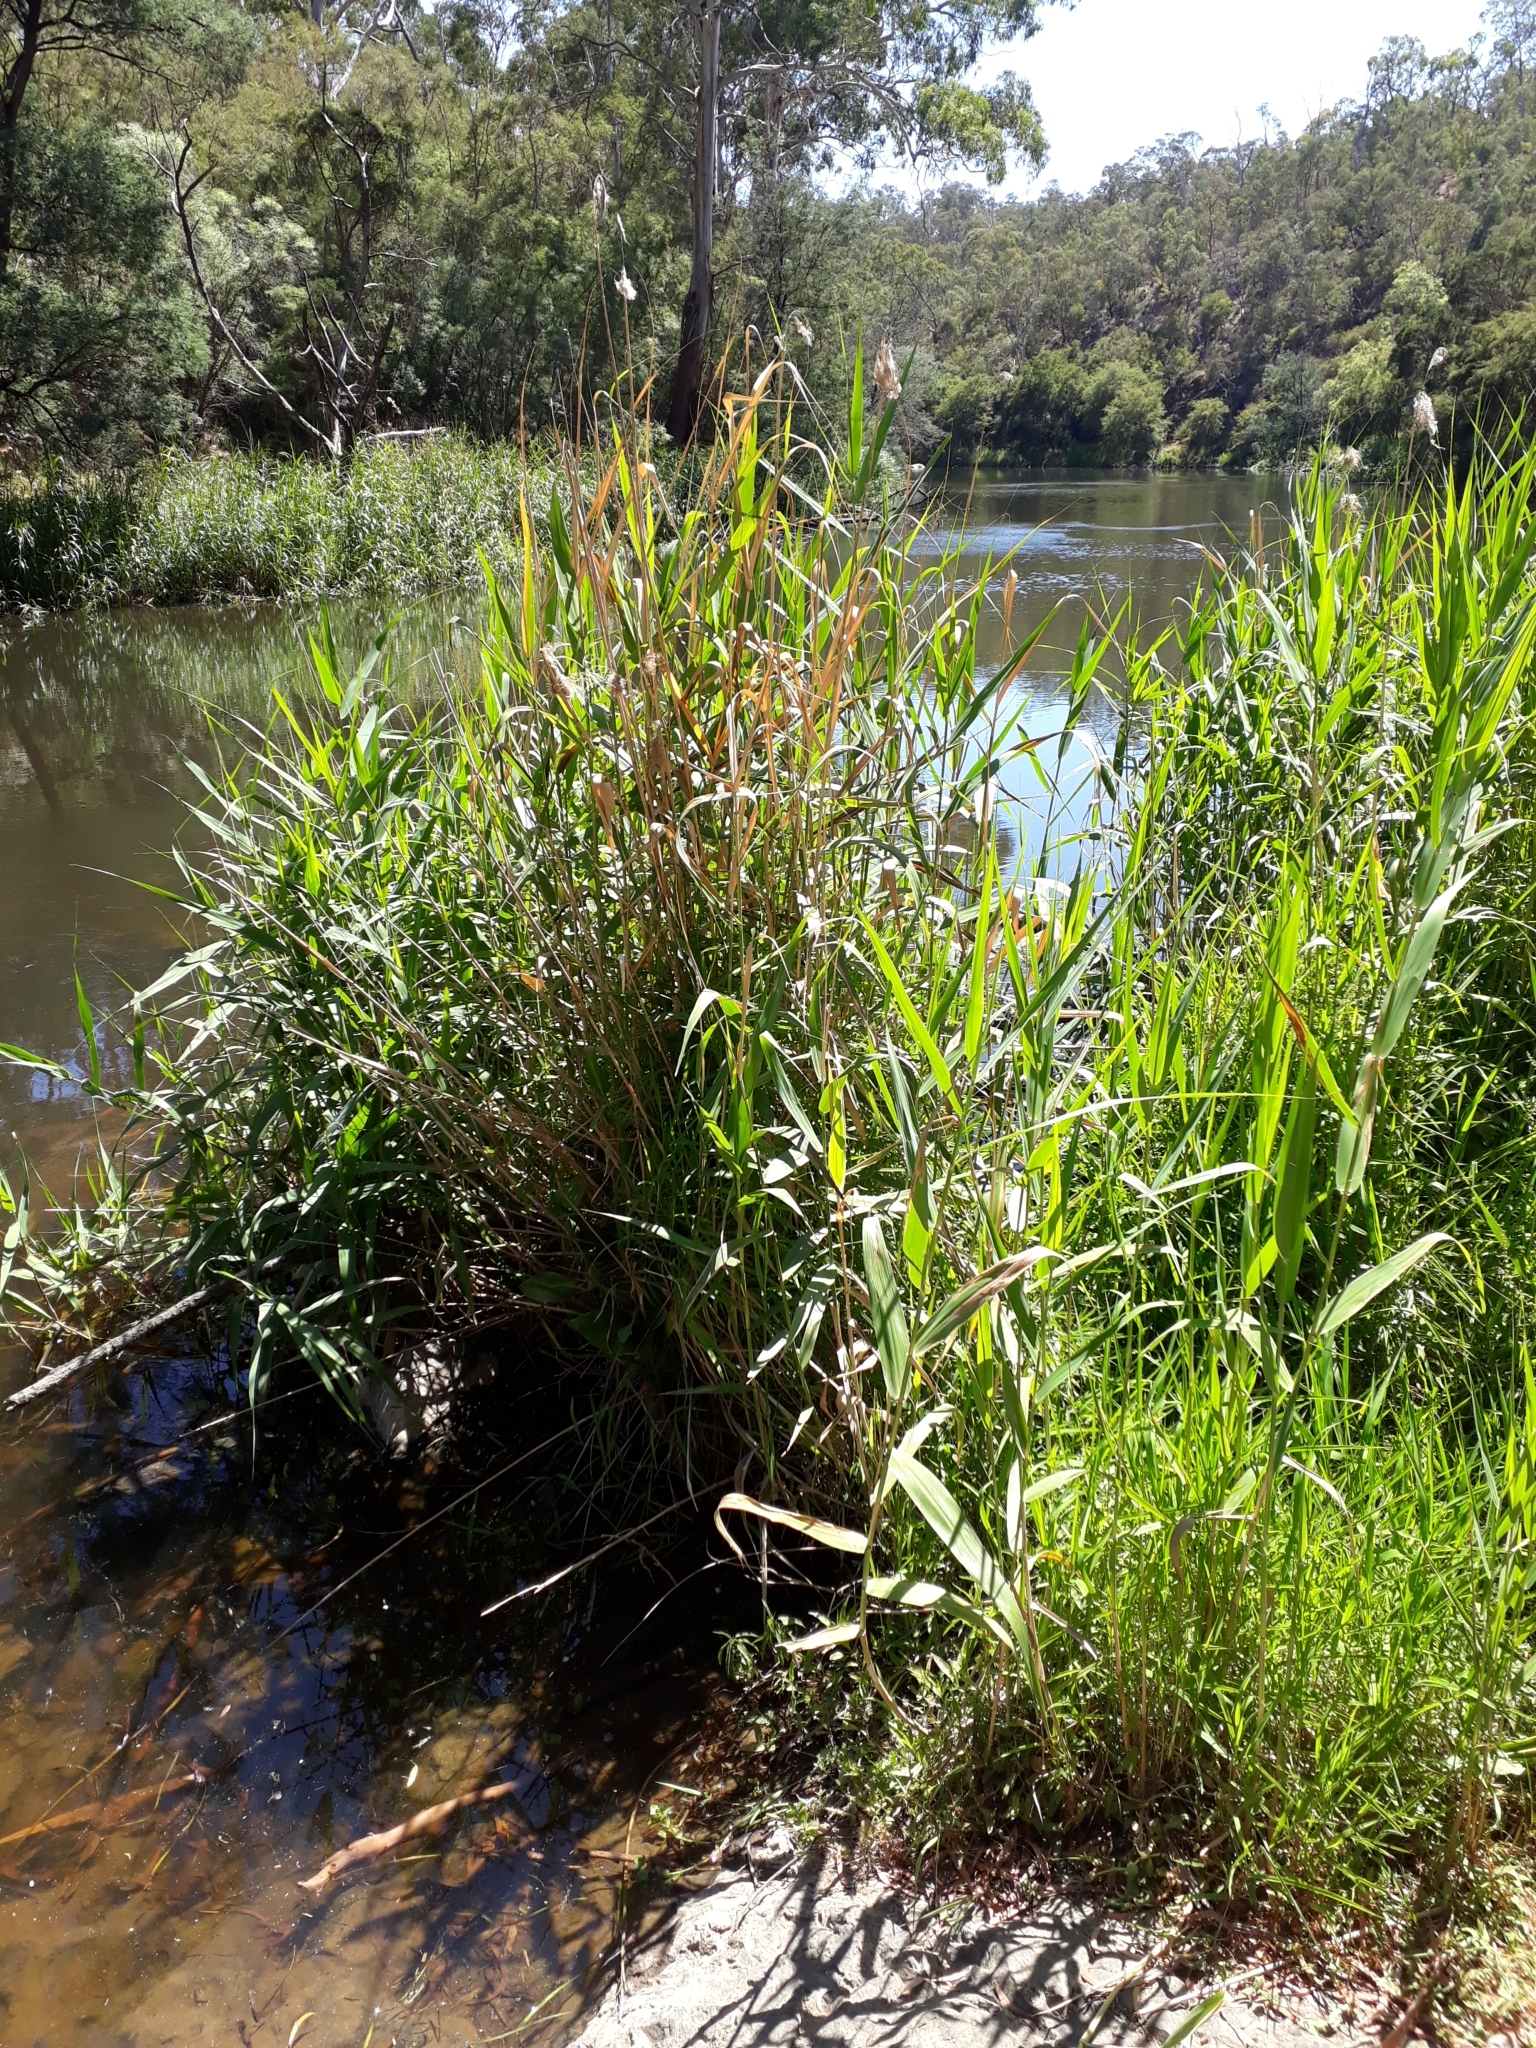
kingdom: Plantae
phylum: Tracheophyta
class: Liliopsida
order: Poales
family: Poaceae
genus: Phragmites
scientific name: Phragmites australis
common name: Common reed
